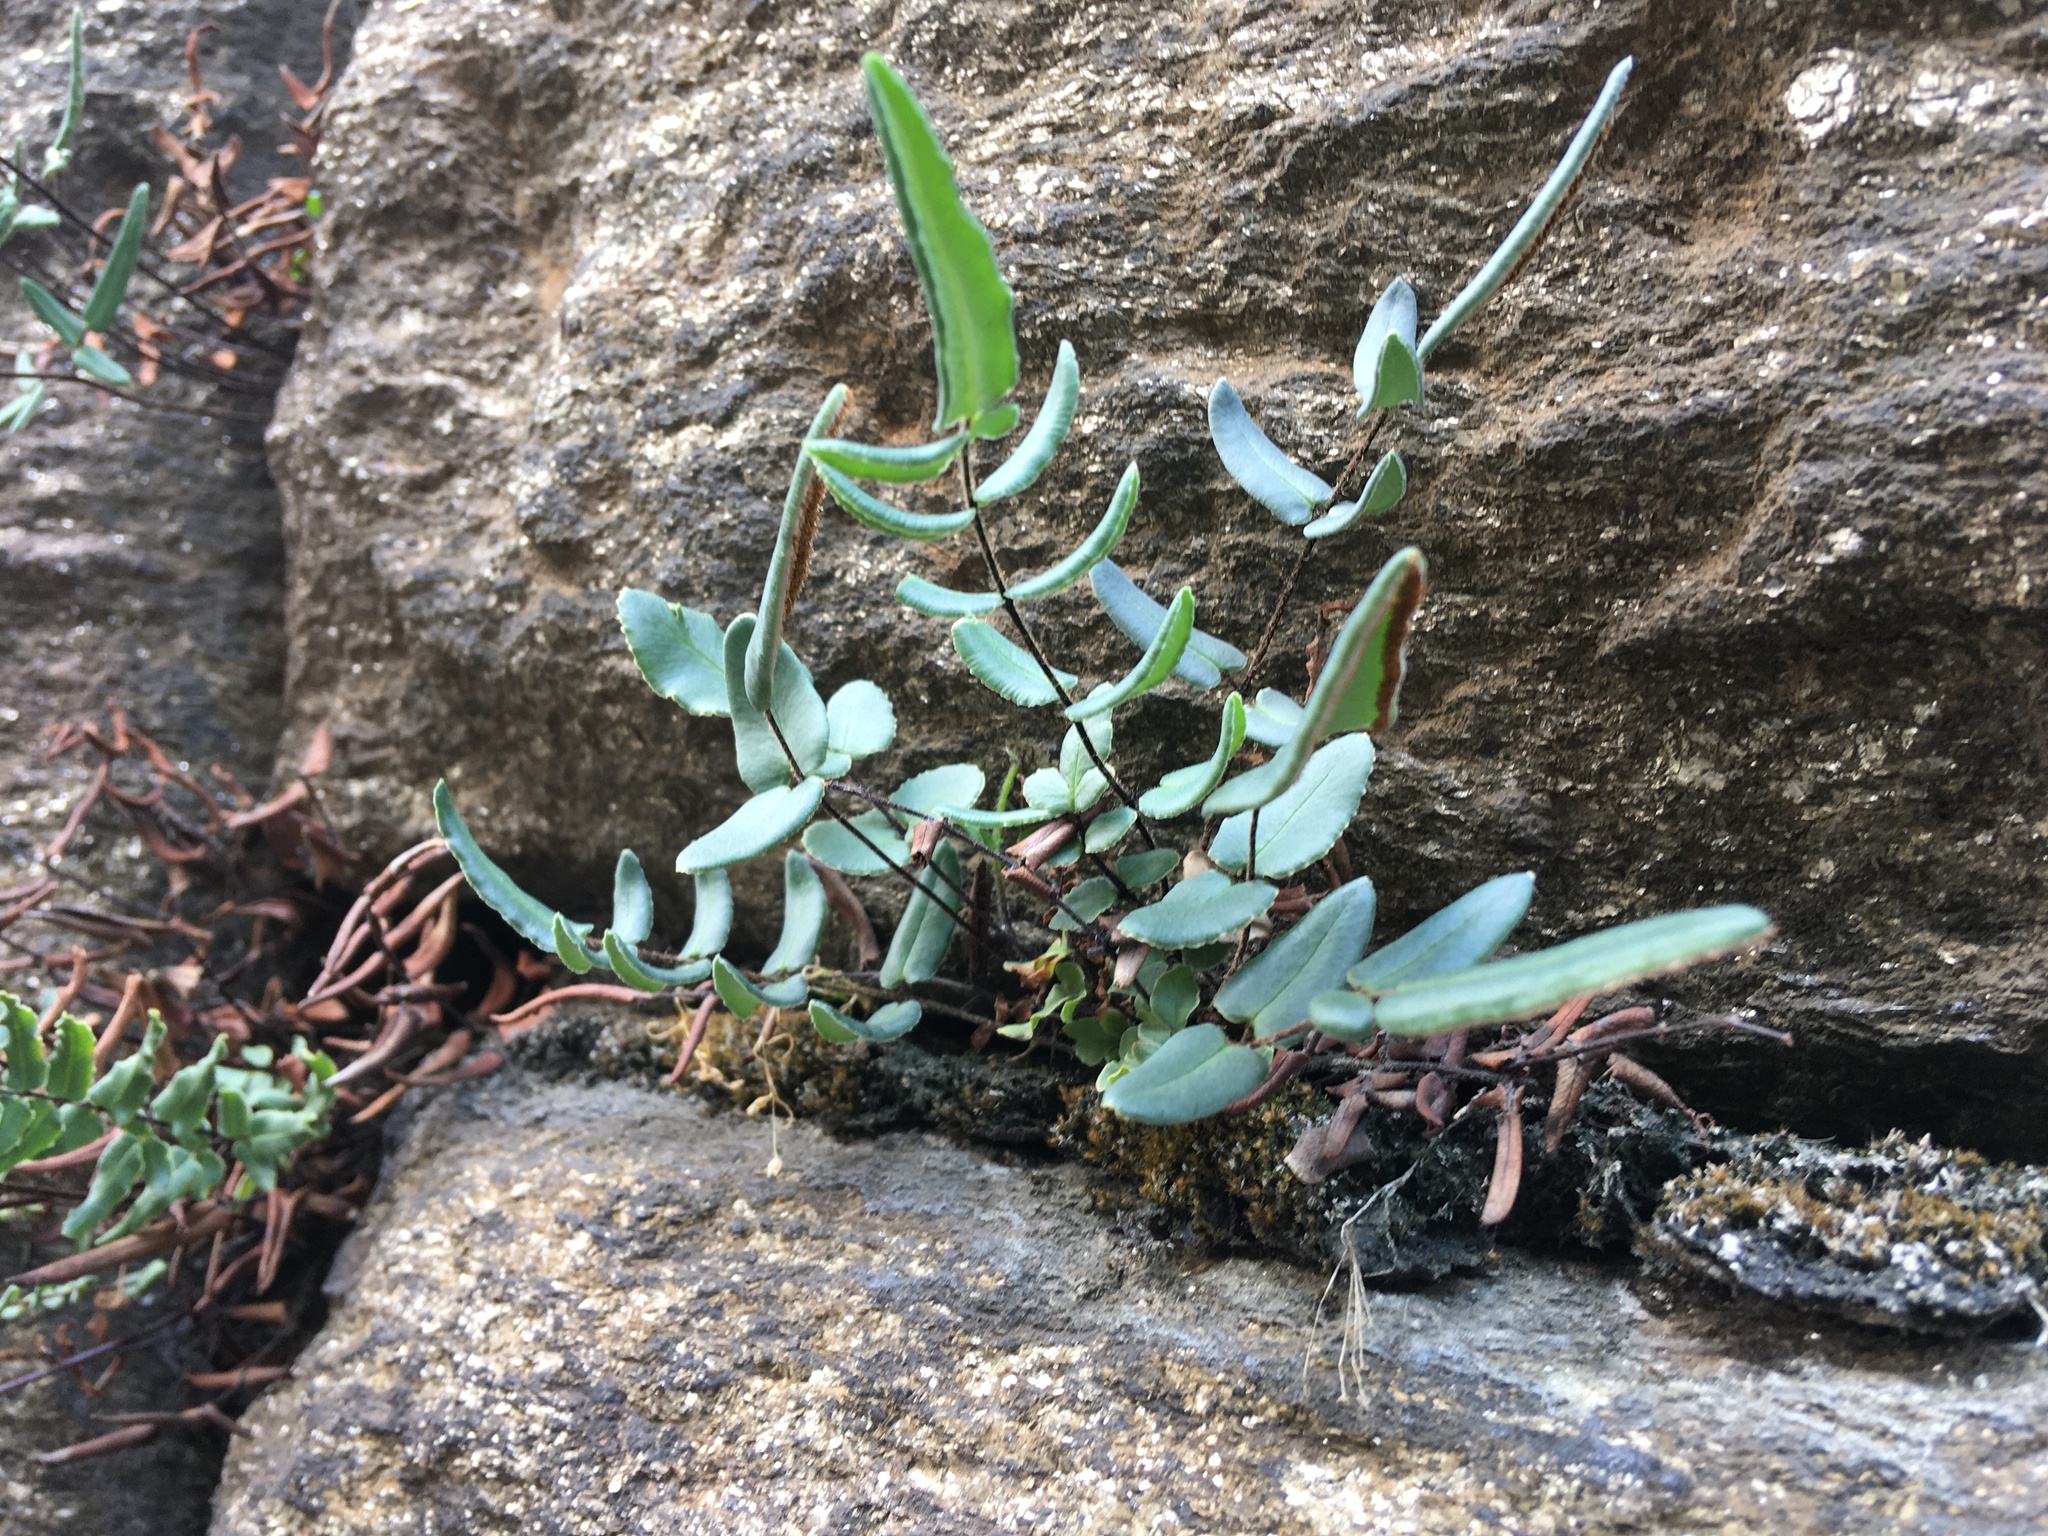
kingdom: Plantae
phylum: Tracheophyta
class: Polypodiopsida
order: Polypodiales
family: Pteridaceae
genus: Pellaea
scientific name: Pellaea atropurpurea
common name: Hairy cliffbrake
